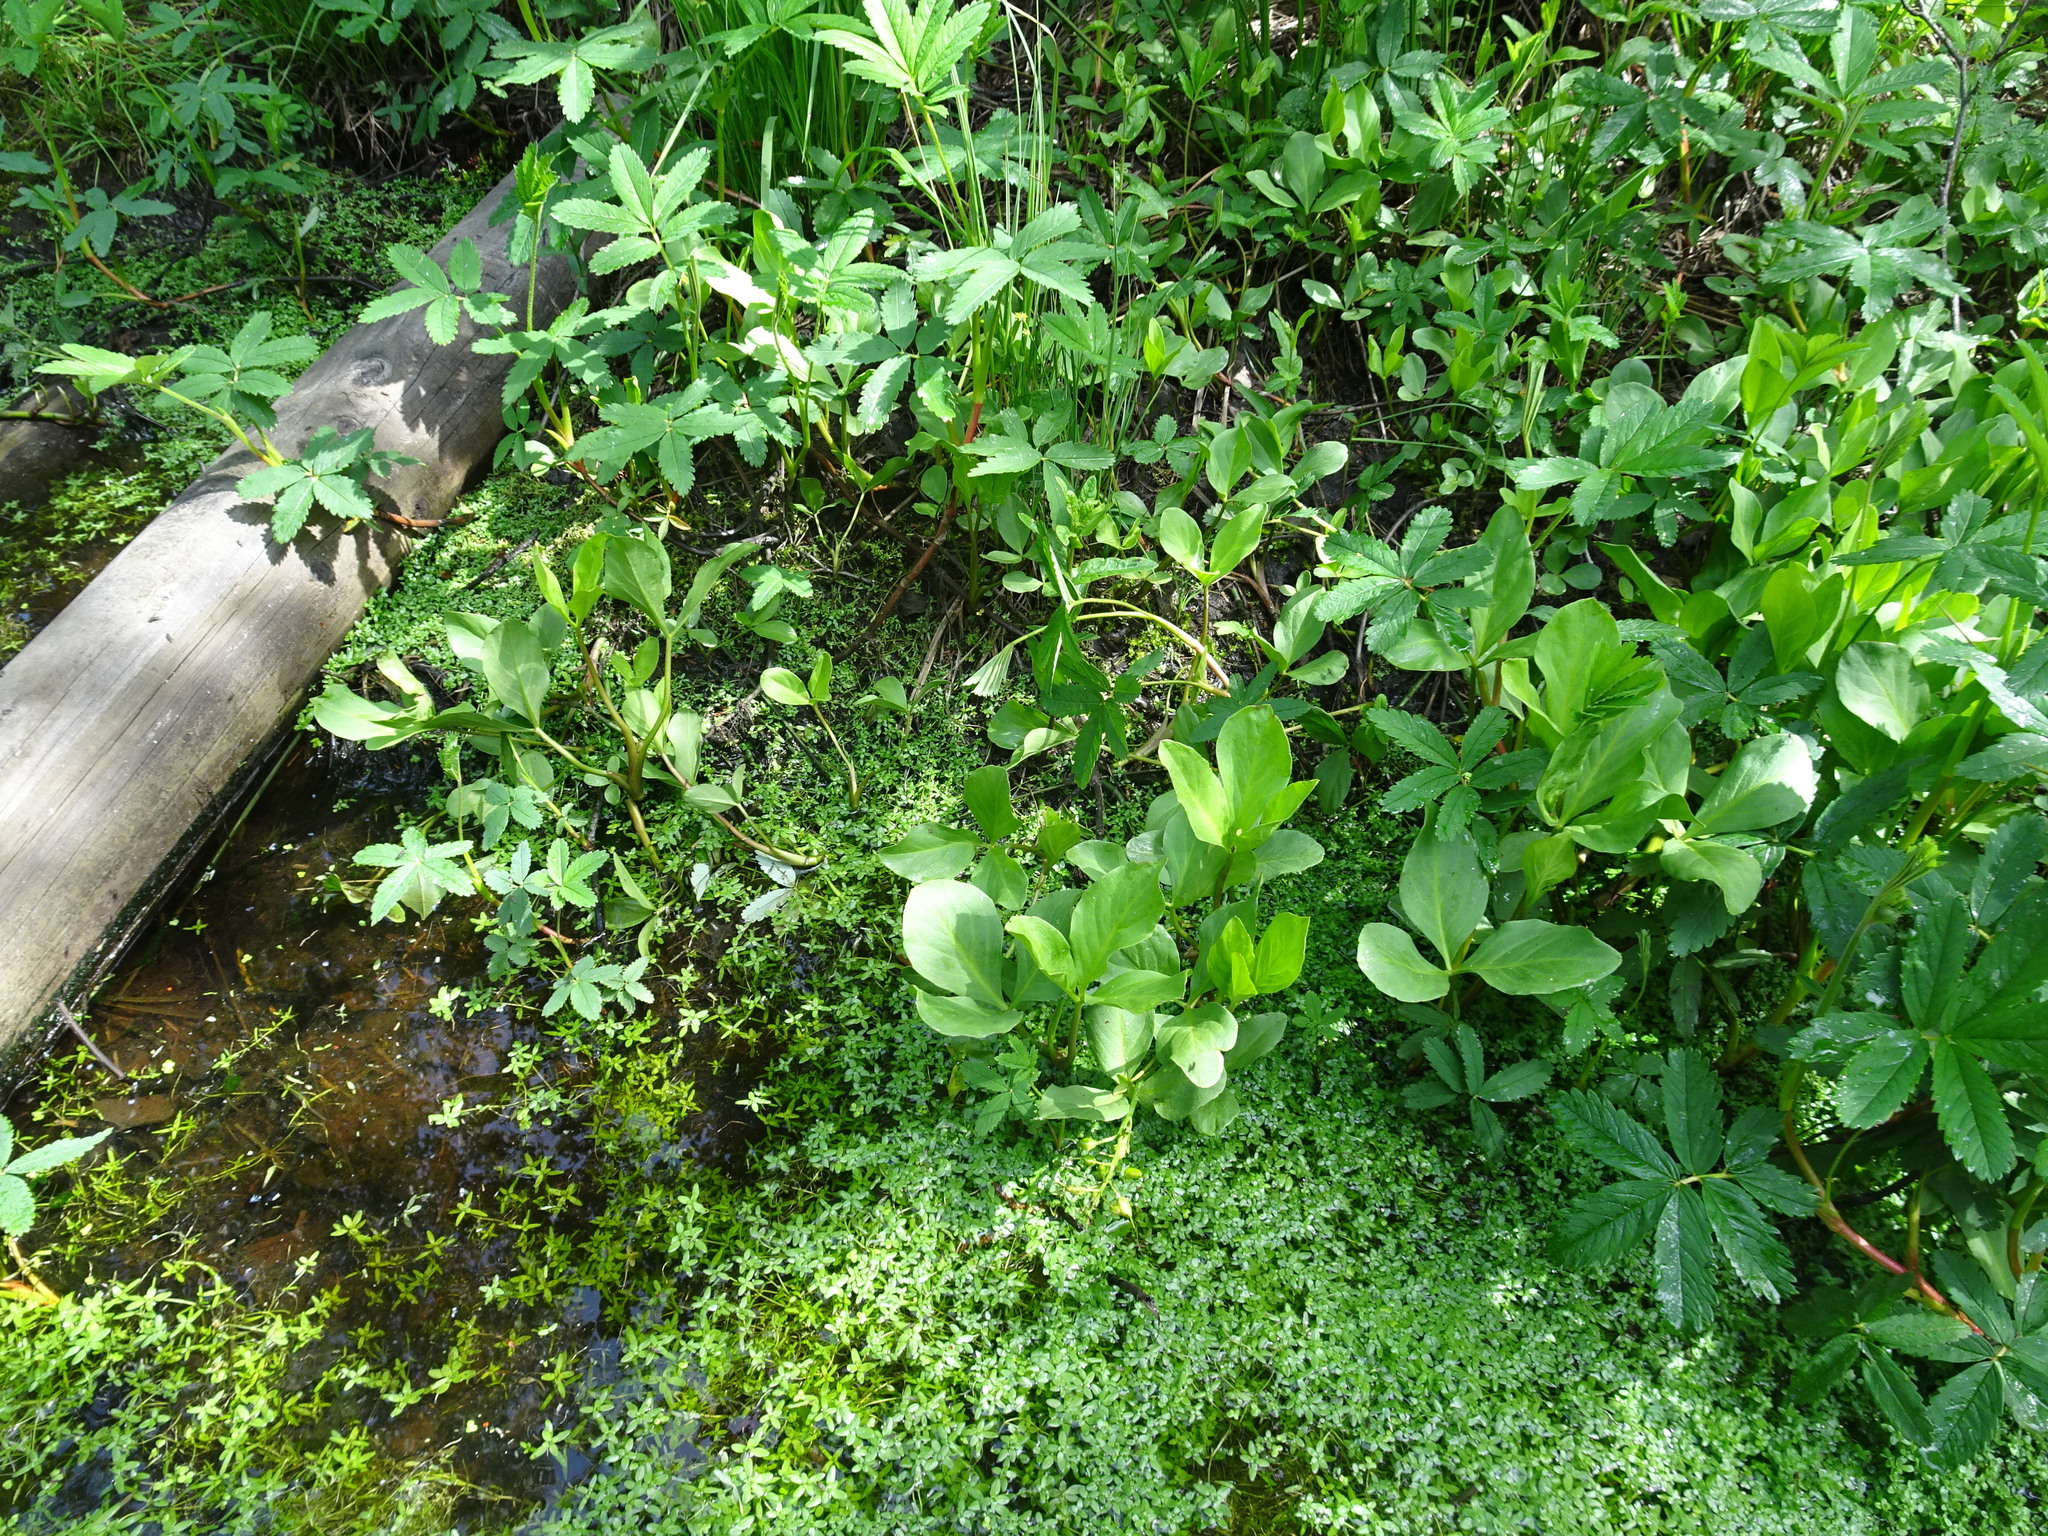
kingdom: Plantae
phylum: Tracheophyta
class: Magnoliopsida
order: Asterales
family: Menyanthaceae
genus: Menyanthes
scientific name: Menyanthes trifoliata
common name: Bogbean
